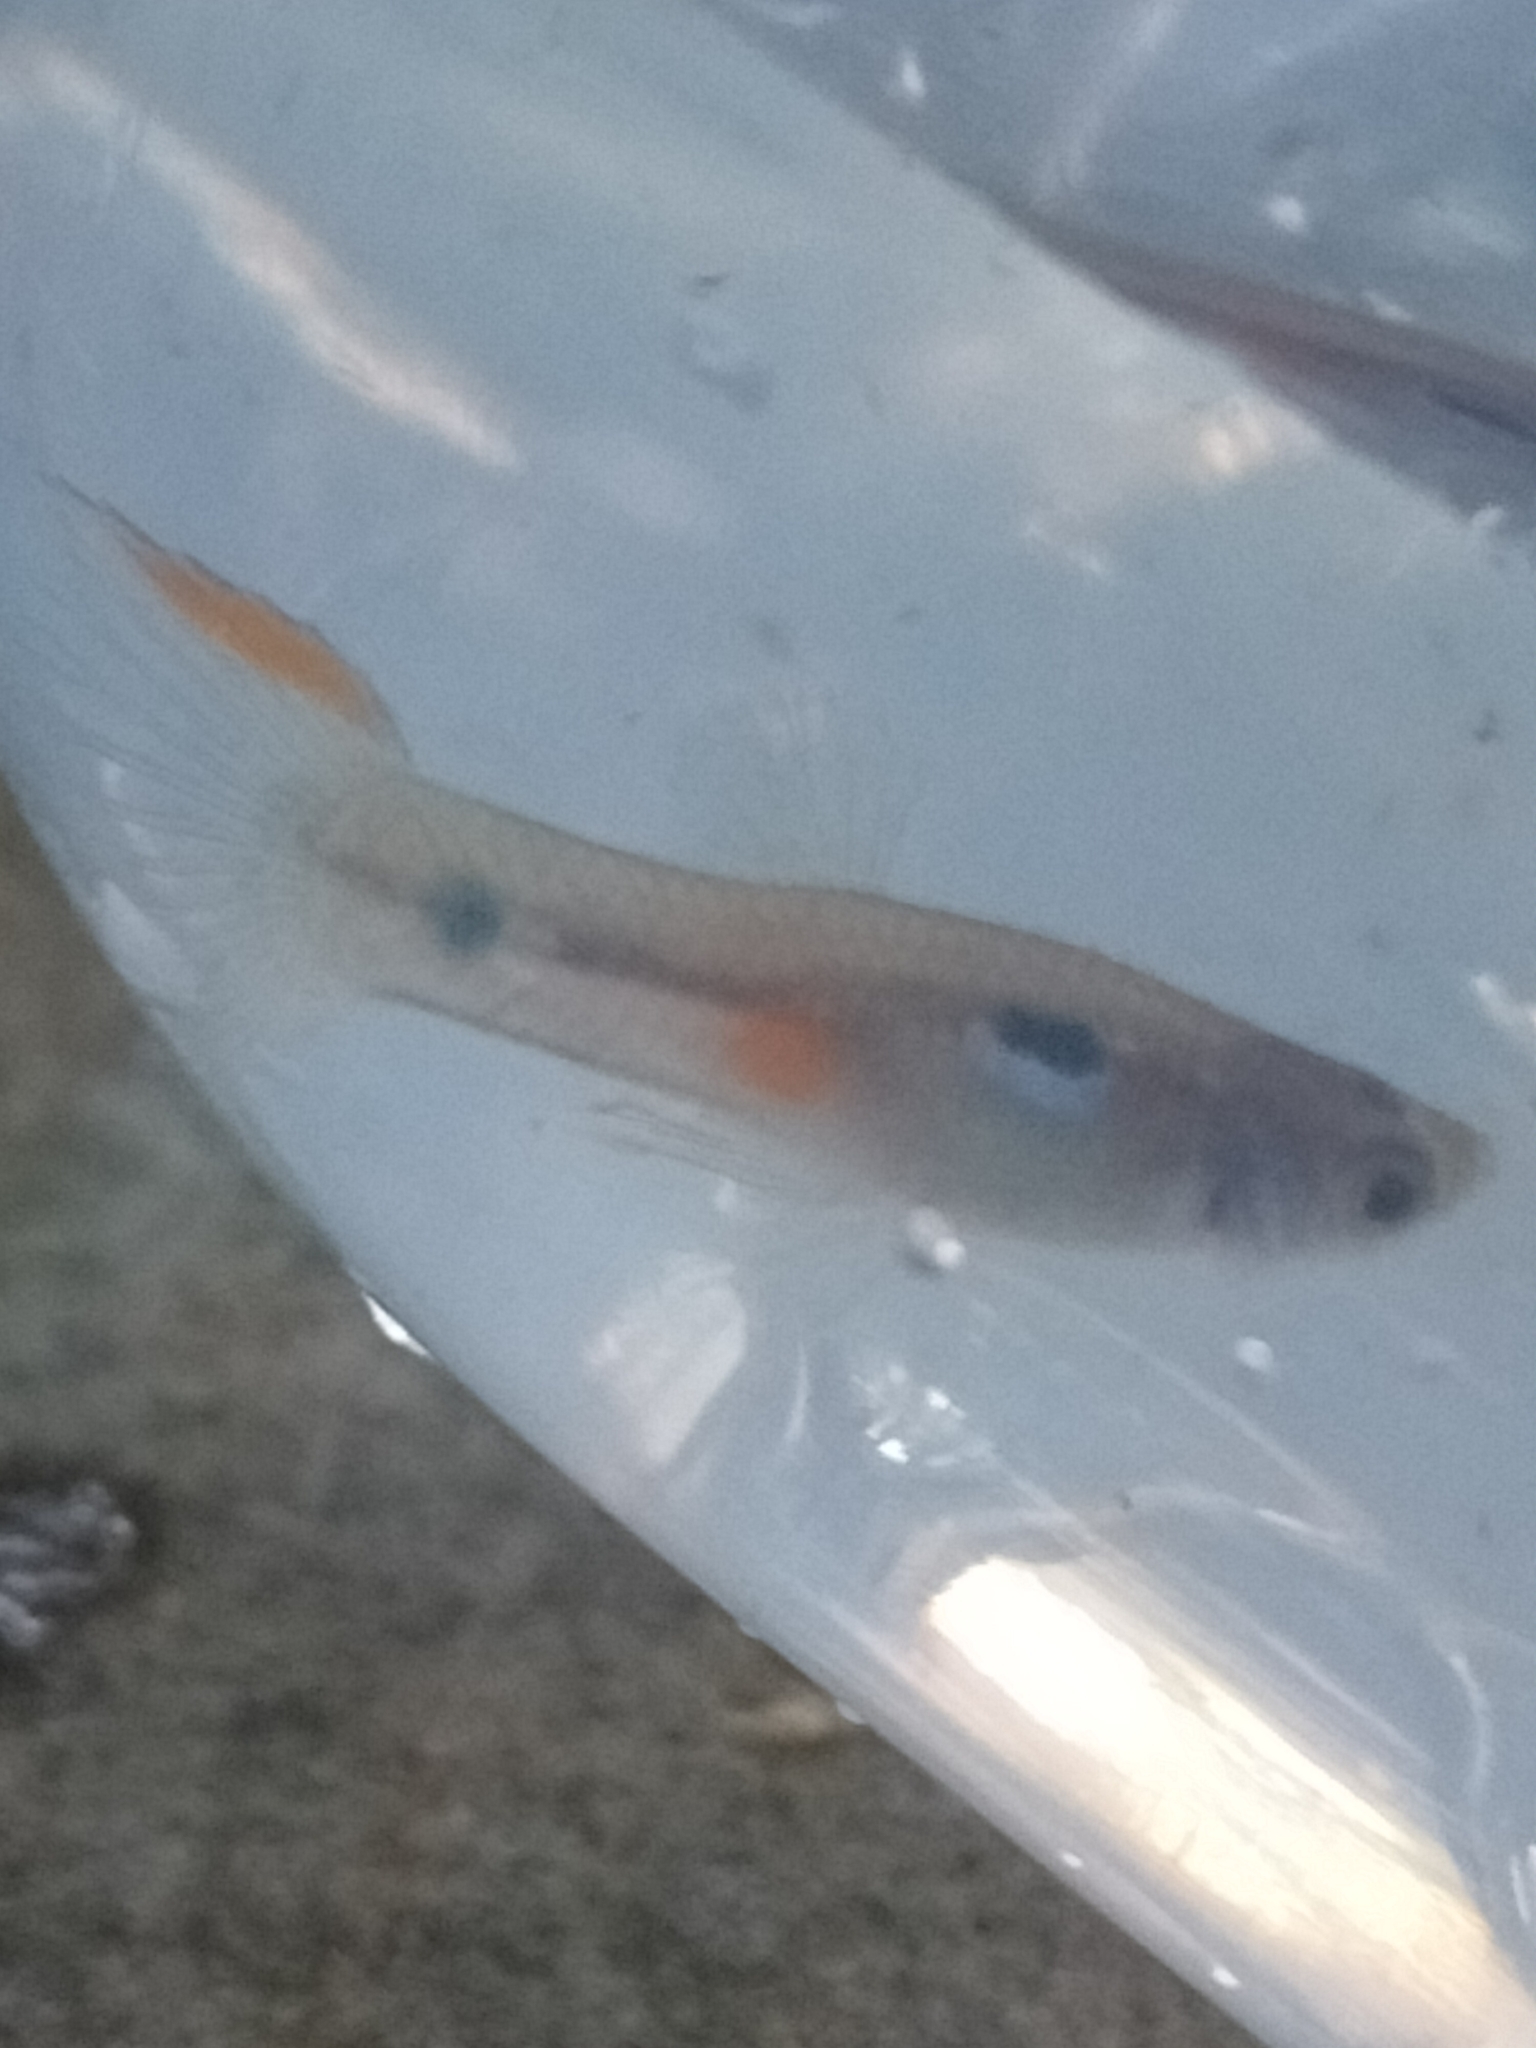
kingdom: Animalia
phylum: Chordata
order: Cyprinodontiformes
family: Poeciliidae
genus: Poecilia
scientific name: Poecilia reticulata
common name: Guppy
